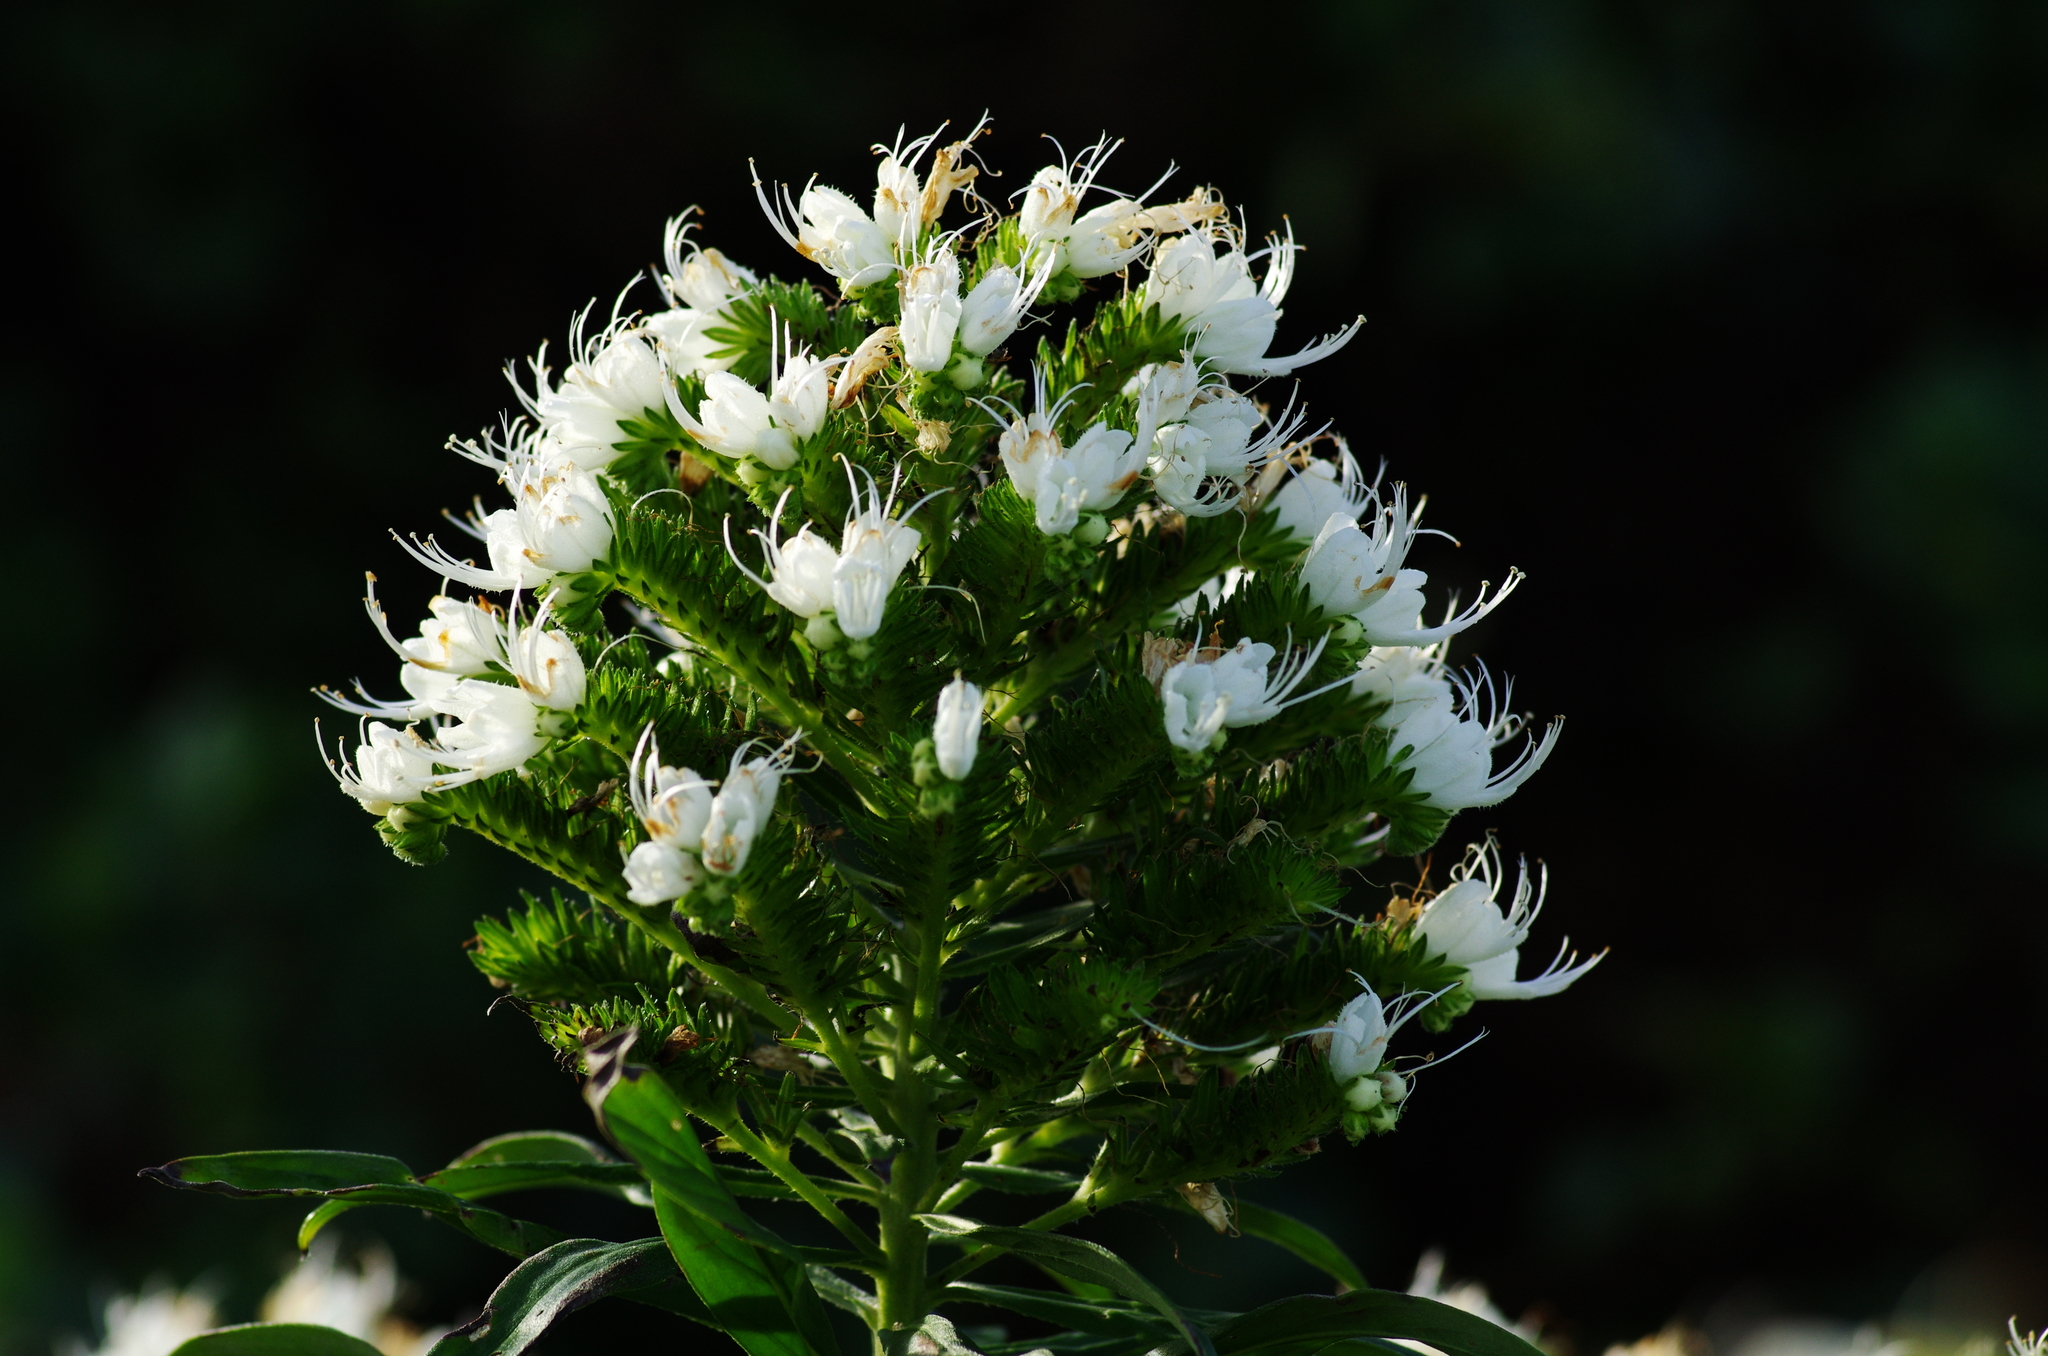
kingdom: Plantae
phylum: Tracheophyta
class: Magnoliopsida
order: Boraginales
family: Boraginaceae
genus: Echium
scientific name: Echium giganteum
